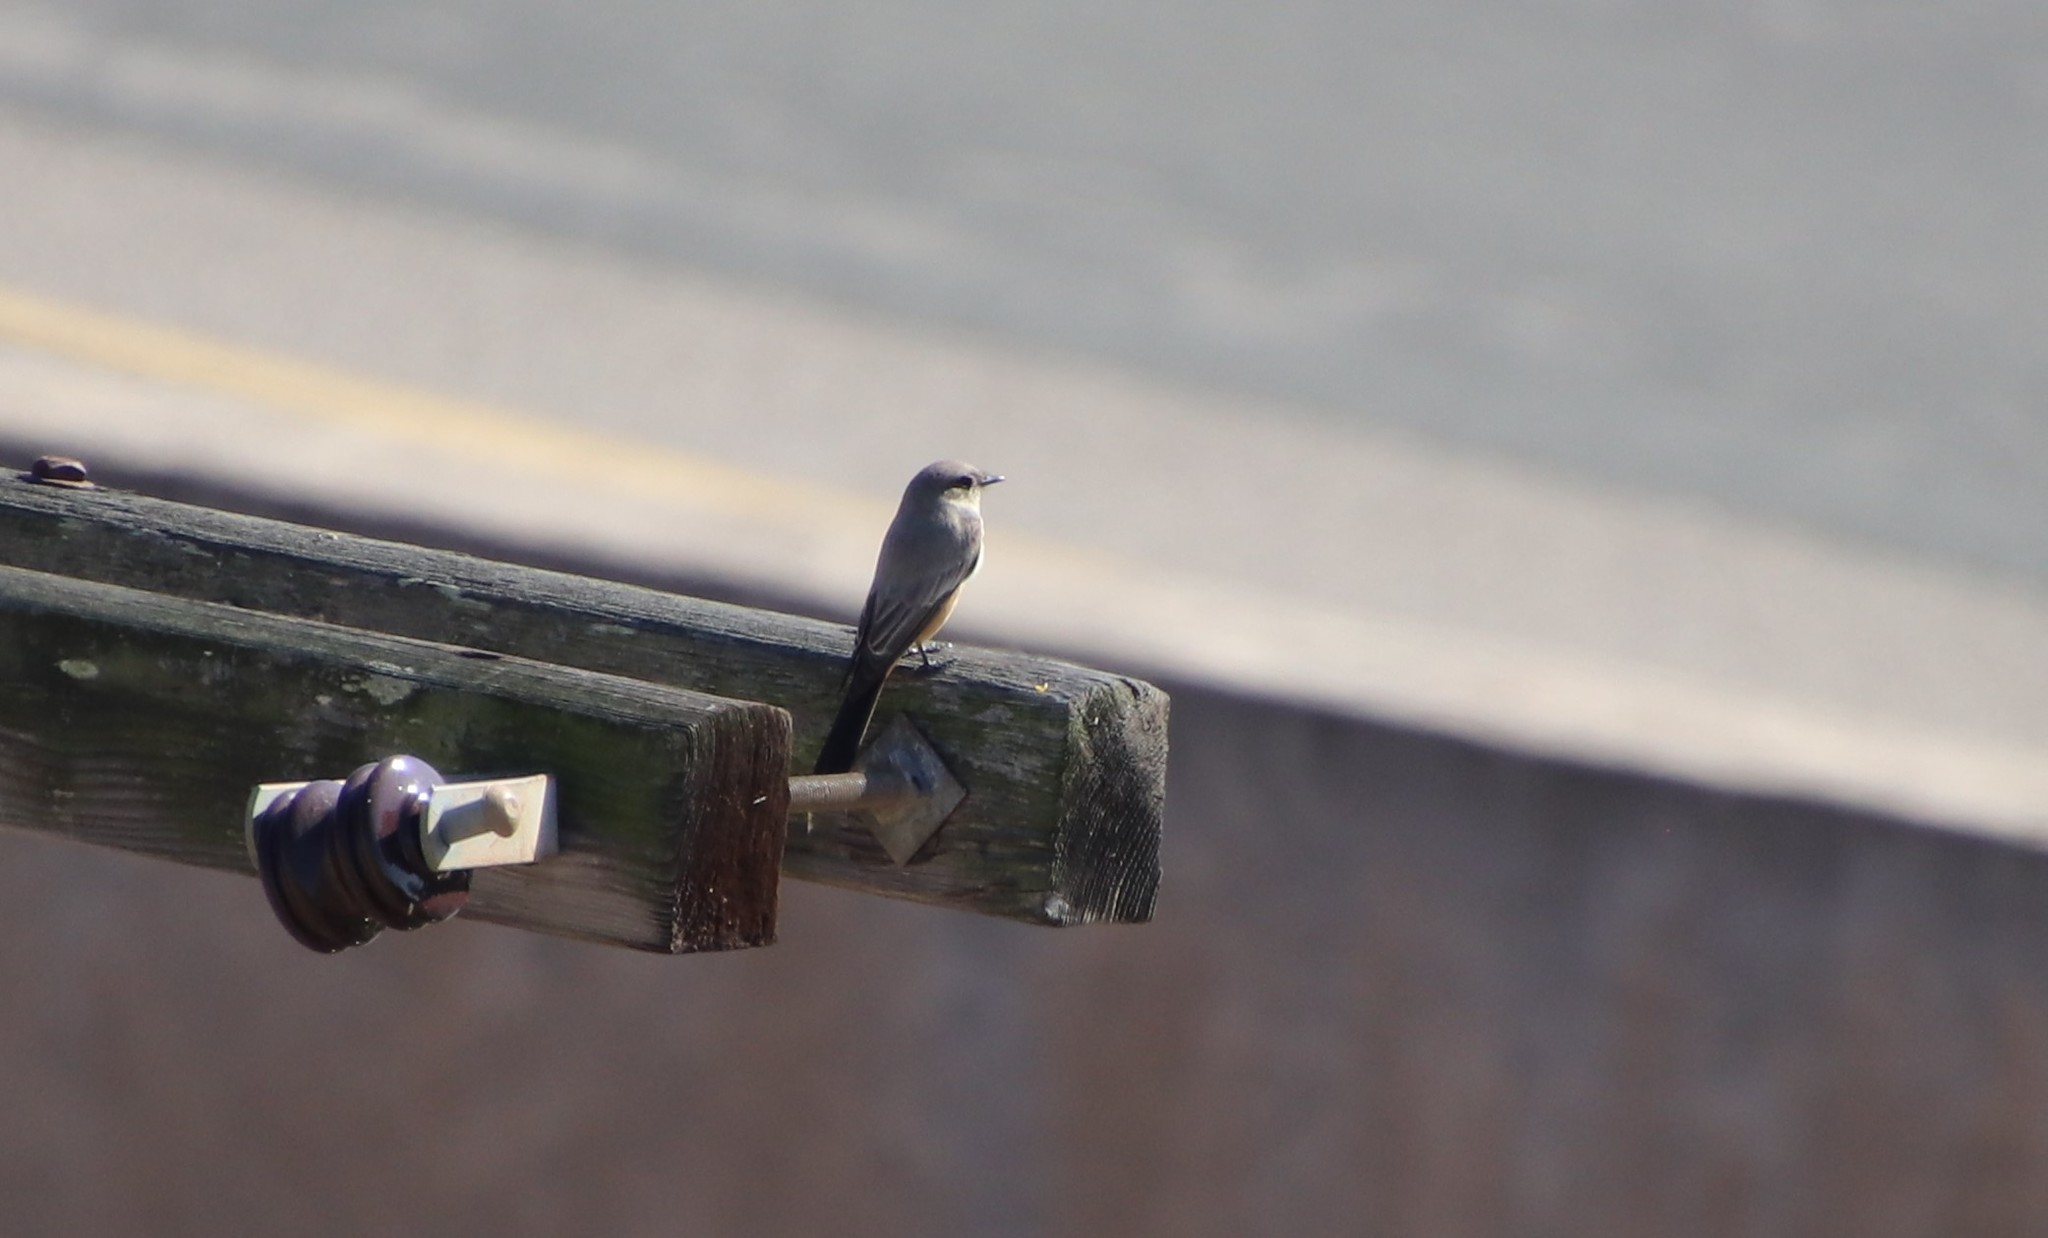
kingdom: Animalia
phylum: Chordata
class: Aves
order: Passeriformes
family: Tyrannidae
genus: Sayornis
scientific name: Sayornis saya
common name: Say's phoebe
